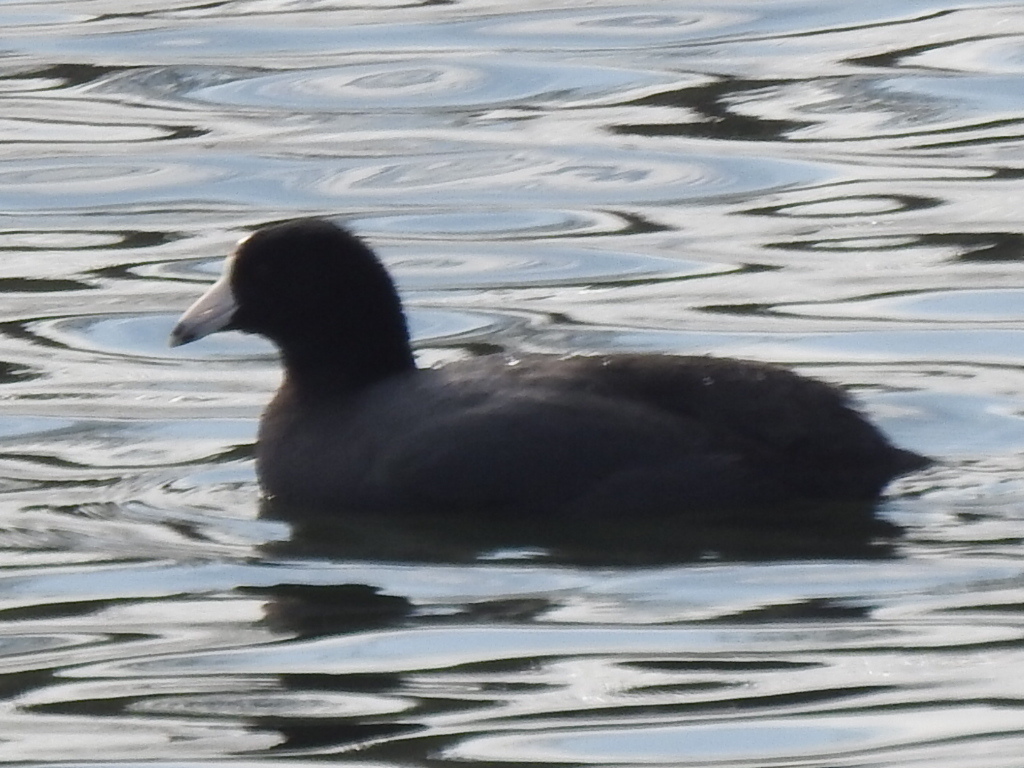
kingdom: Animalia
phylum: Chordata
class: Aves
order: Gruiformes
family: Rallidae
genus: Fulica
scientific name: Fulica americana
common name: American coot
